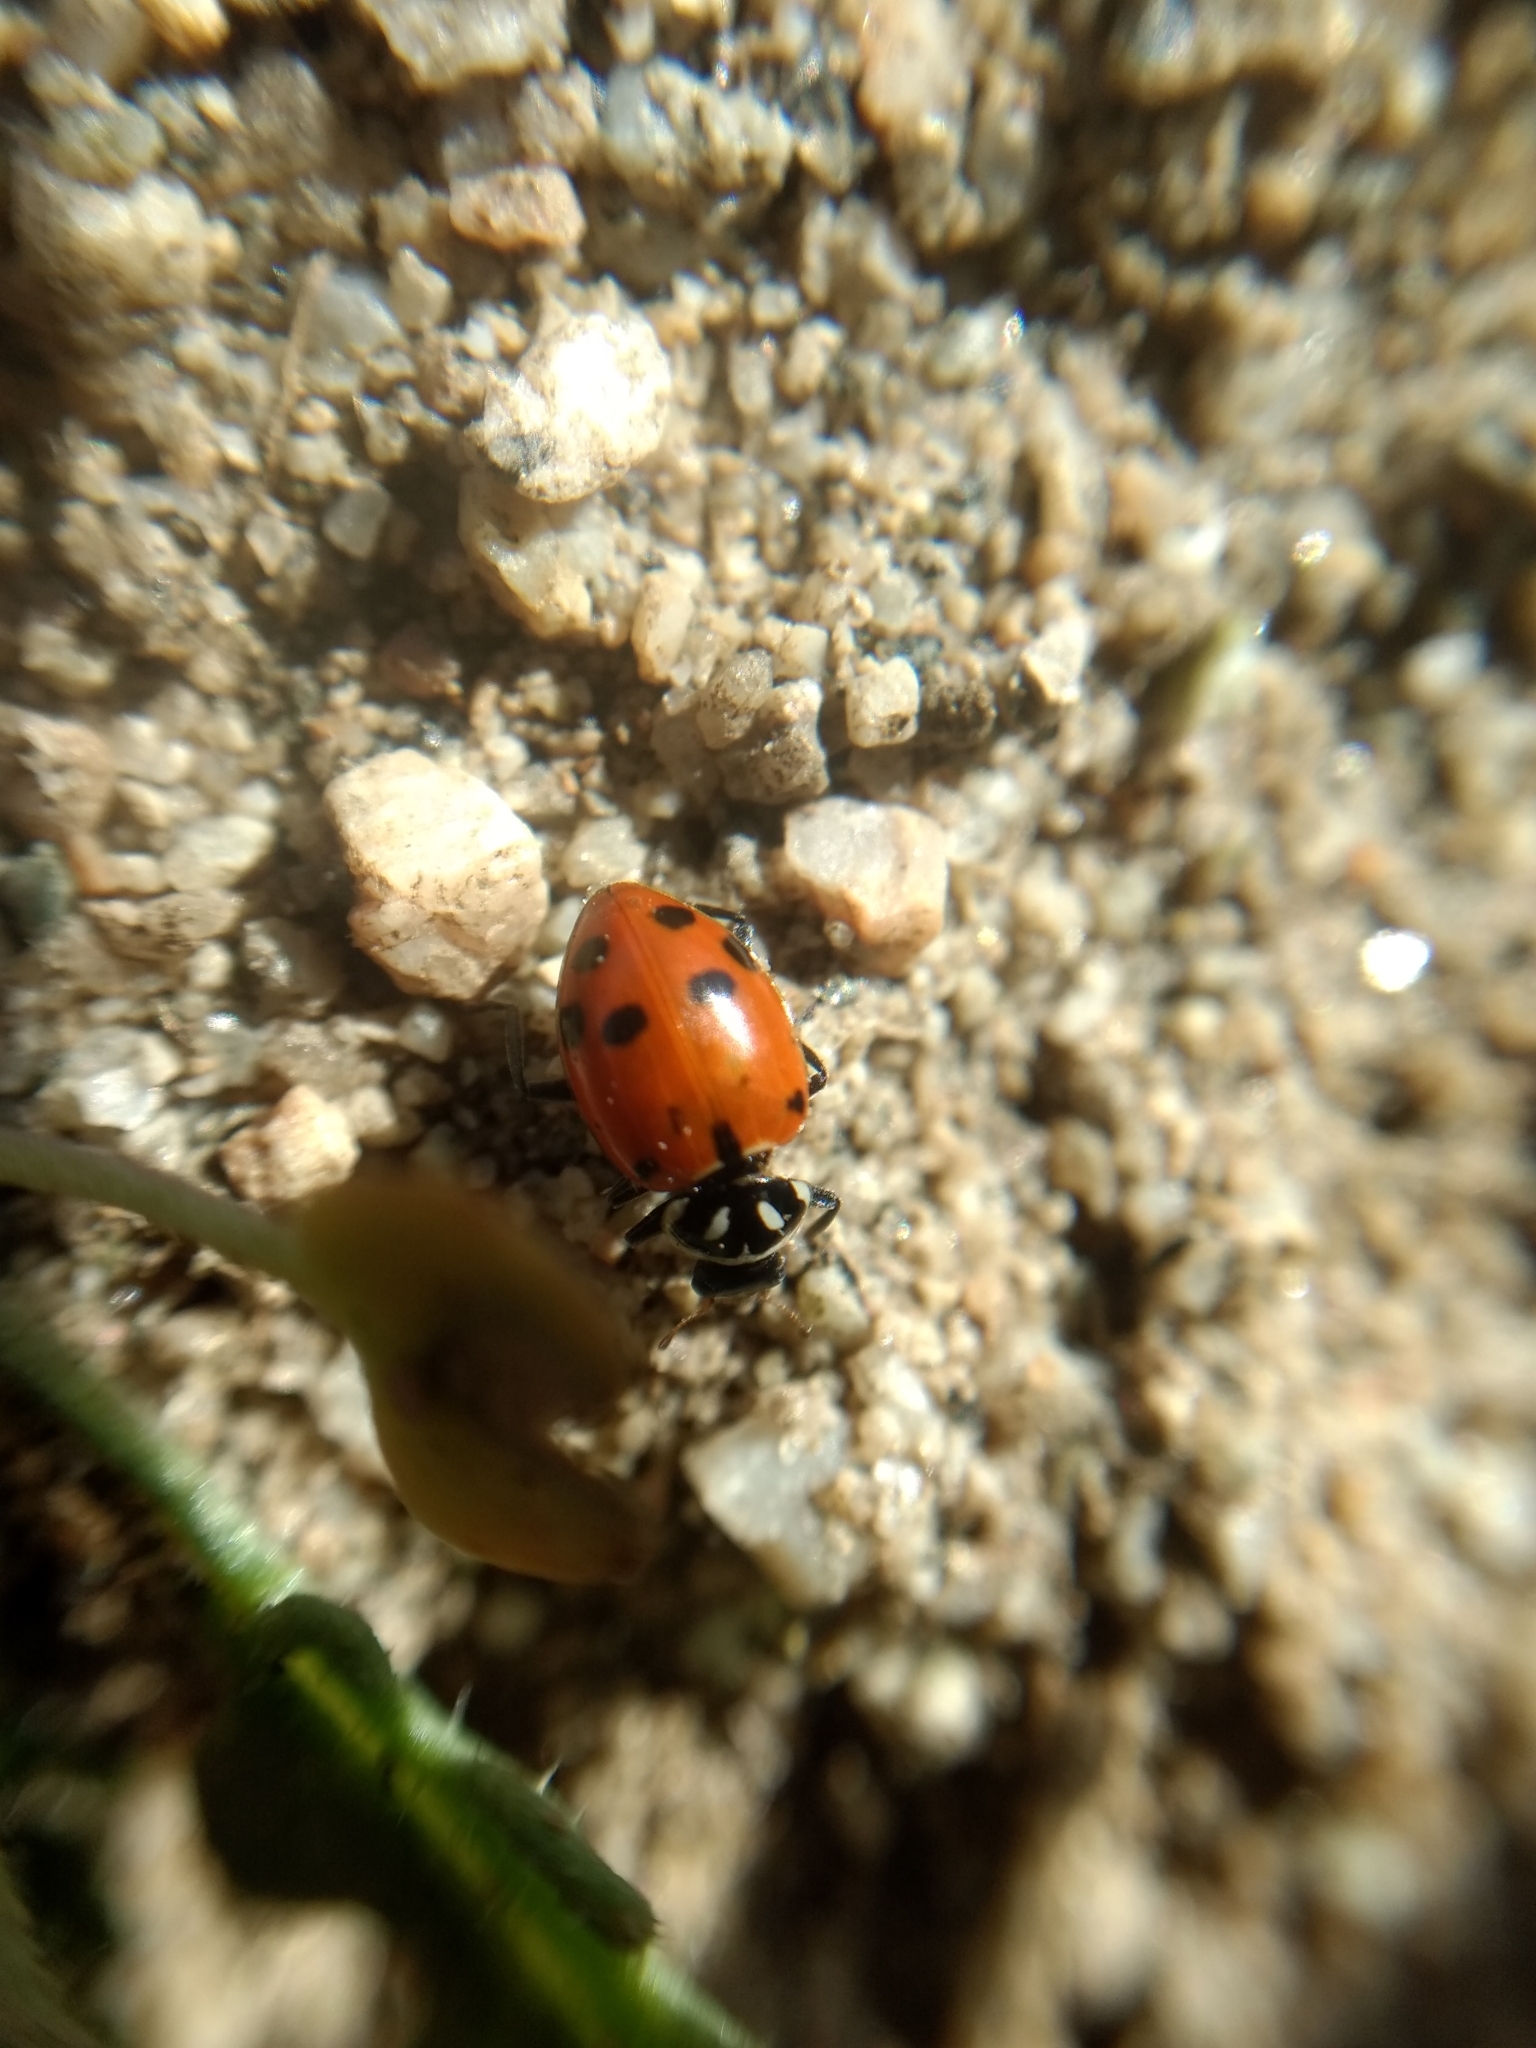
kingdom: Animalia
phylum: Arthropoda
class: Insecta
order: Coleoptera
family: Coccinellidae
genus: Hippodamia
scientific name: Hippodamia convergens
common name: Convergent lady beetle
